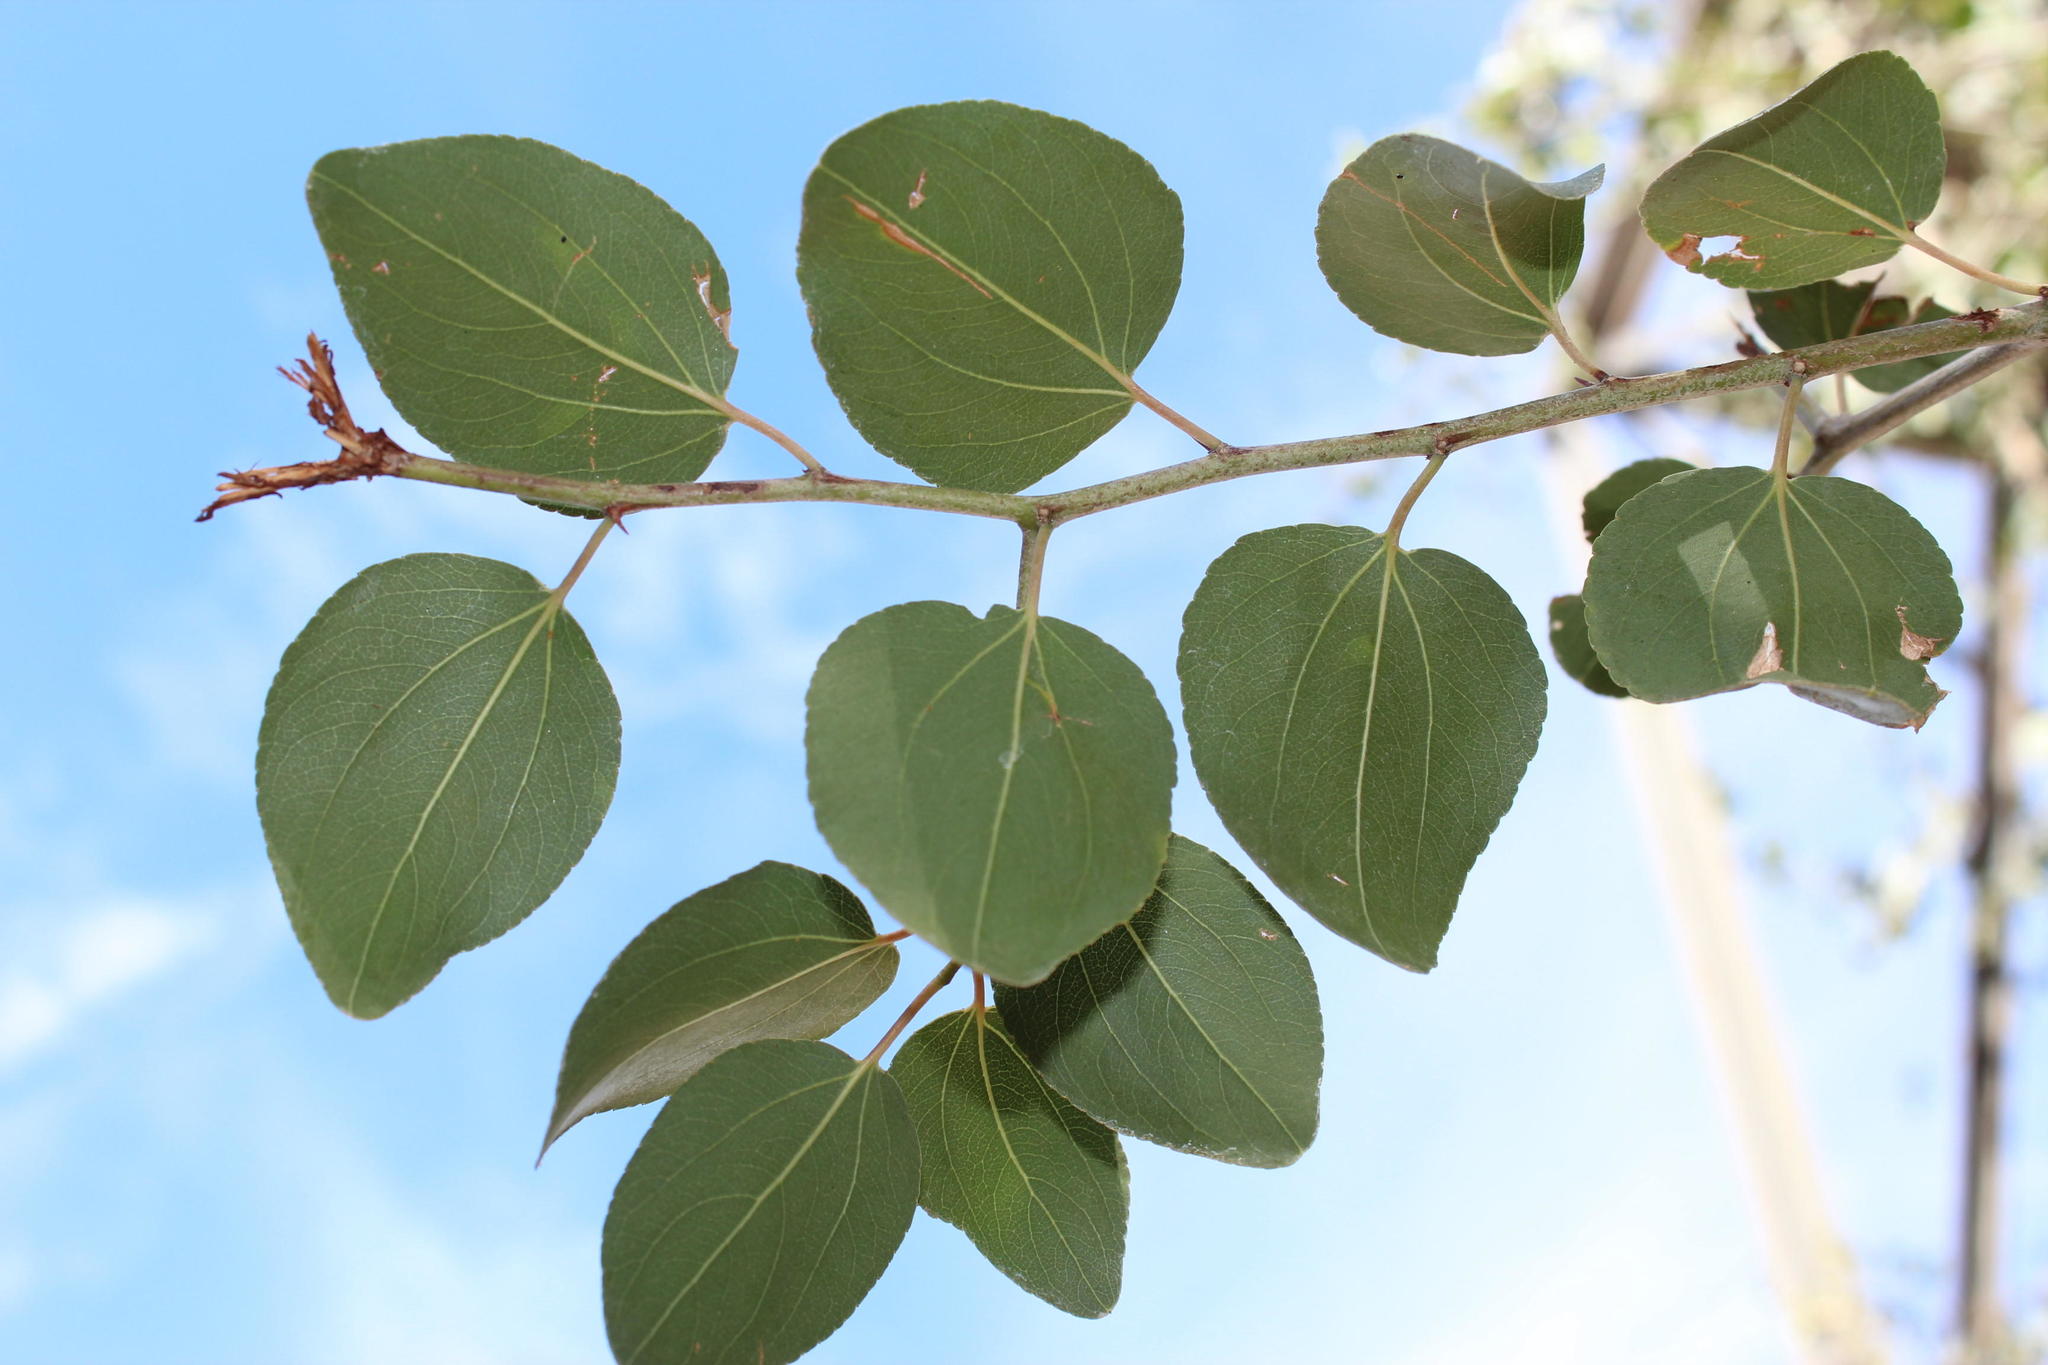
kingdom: Plantae
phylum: Tracheophyta
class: Magnoliopsida
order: Rosales
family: Rhamnaceae
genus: Ziziphus
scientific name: Ziziphus mucronata
